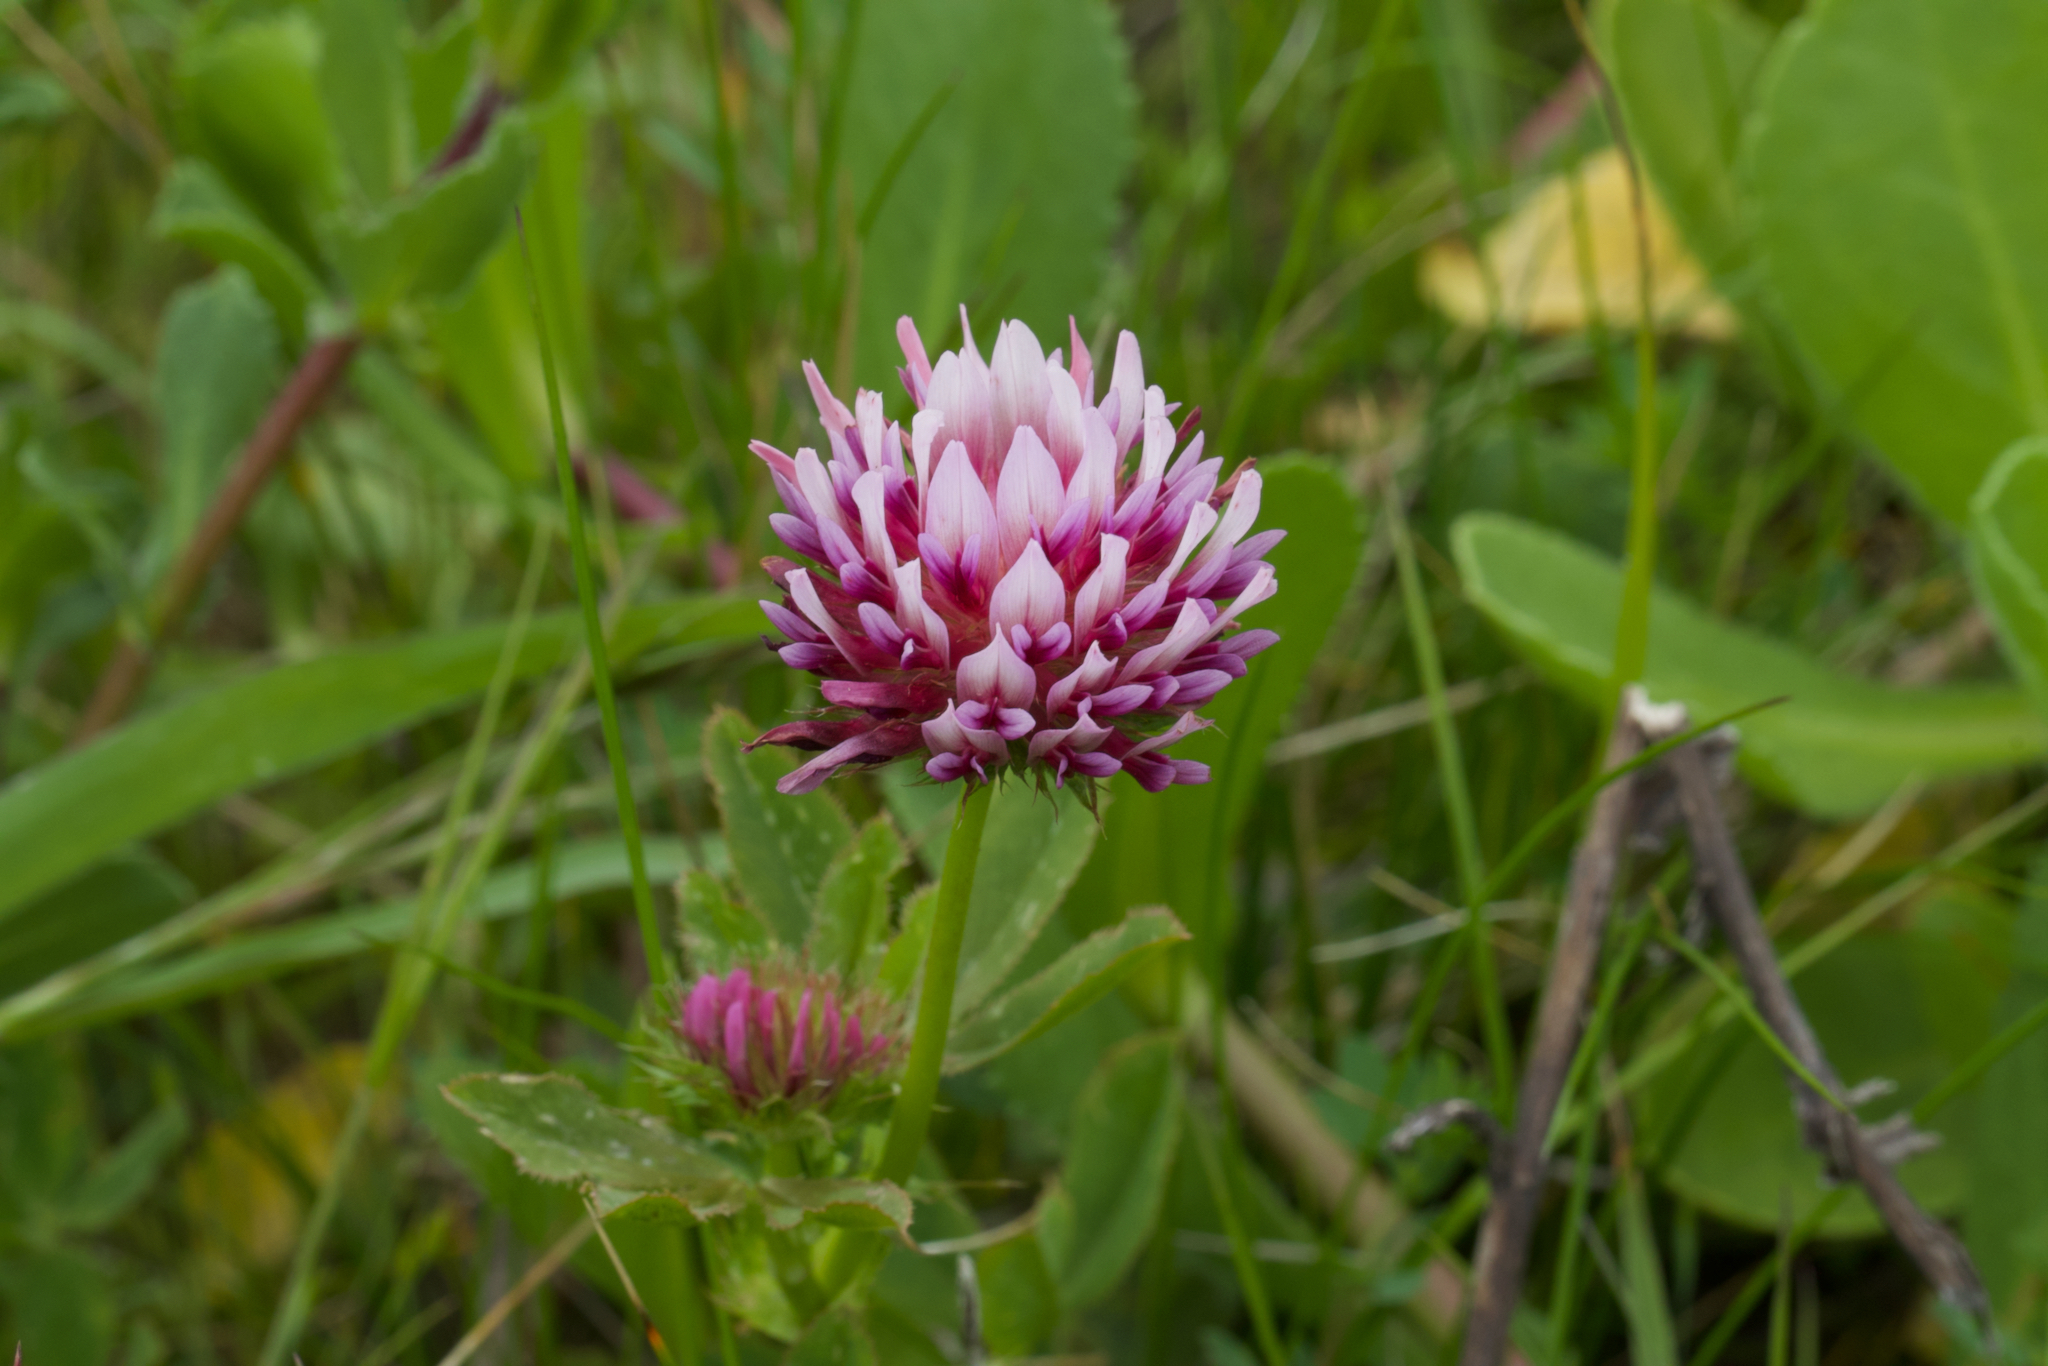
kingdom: Plantae
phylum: Tracheophyta
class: Magnoliopsida
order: Fabales
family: Fabaceae
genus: Trifolium
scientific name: Trifolium wormskioldii
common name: Springbank clover
